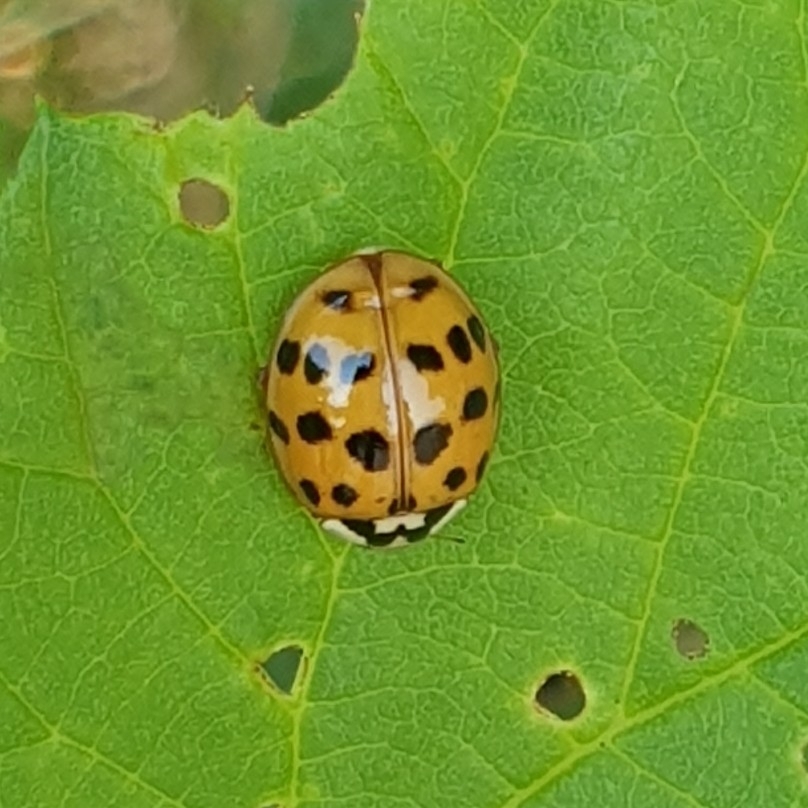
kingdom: Animalia
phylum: Arthropoda
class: Insecta
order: Coleoptera
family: Coccinellidae
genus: Harmonia
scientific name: Harmonia axyridis
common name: Harlequin ladybird
